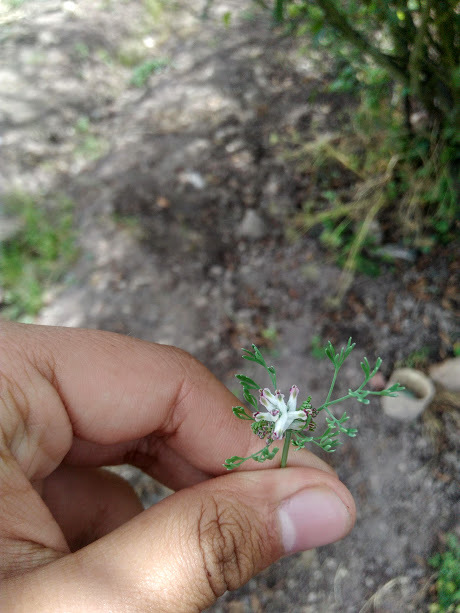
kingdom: Plantae
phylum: Tracheophyta
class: Magnoliopsida
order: Ranunculales
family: Papaveraceae
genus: Fumaria
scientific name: Fumaria parviflora
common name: Fine-leaved fumitory
